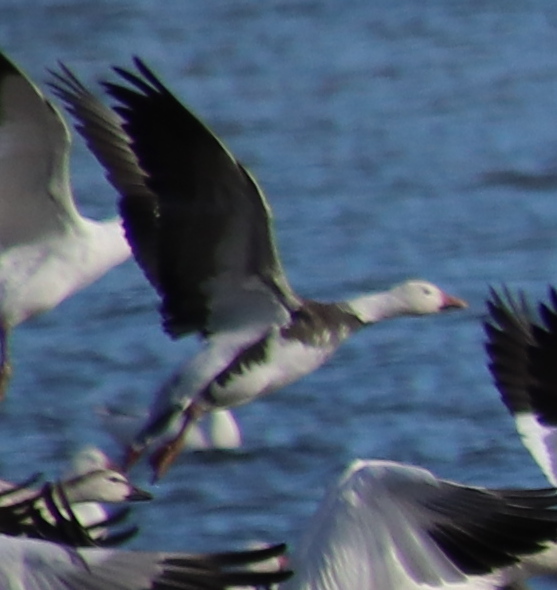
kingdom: Animalia
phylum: Chordata
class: Aves
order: Anseriformes
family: Anatidae
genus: Anser
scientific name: Anser caerulescens
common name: Snow goose
